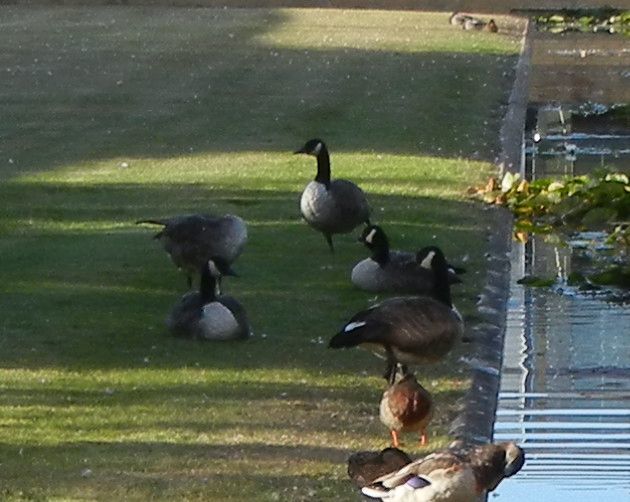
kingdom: Animalia
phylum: Chordata
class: Aves
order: Anseriformes
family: Anatidae
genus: Branta
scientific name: Branta canadensis
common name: Canada goose
